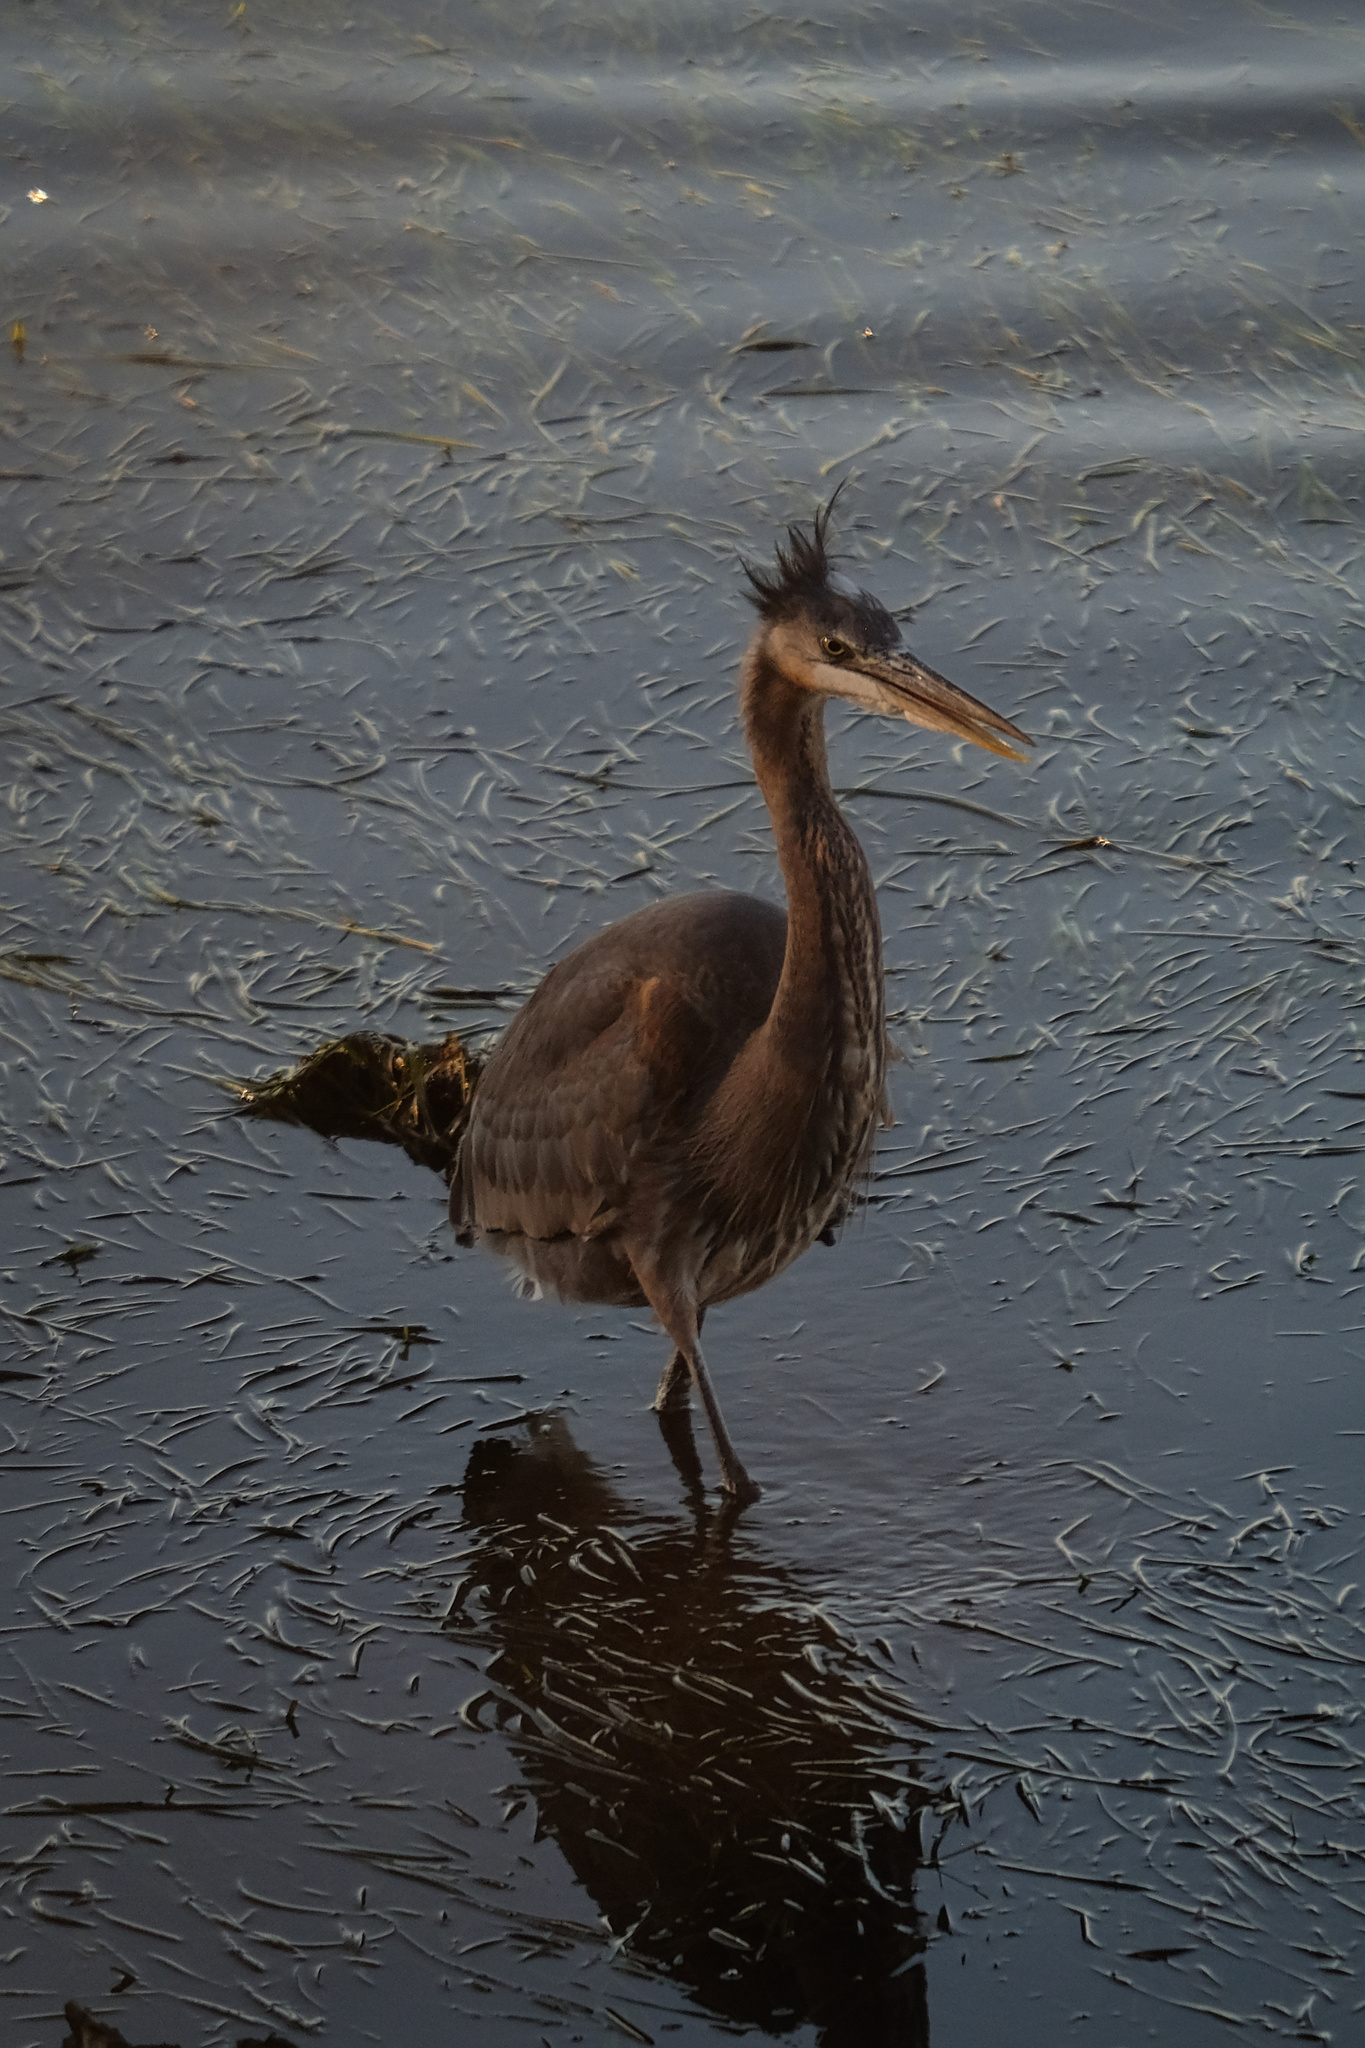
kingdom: Animalia
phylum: Chordata
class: Aves
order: Pelecaniformes
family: Ardeidae
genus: Ardea
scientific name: Ardea herodias
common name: Great blue heron
